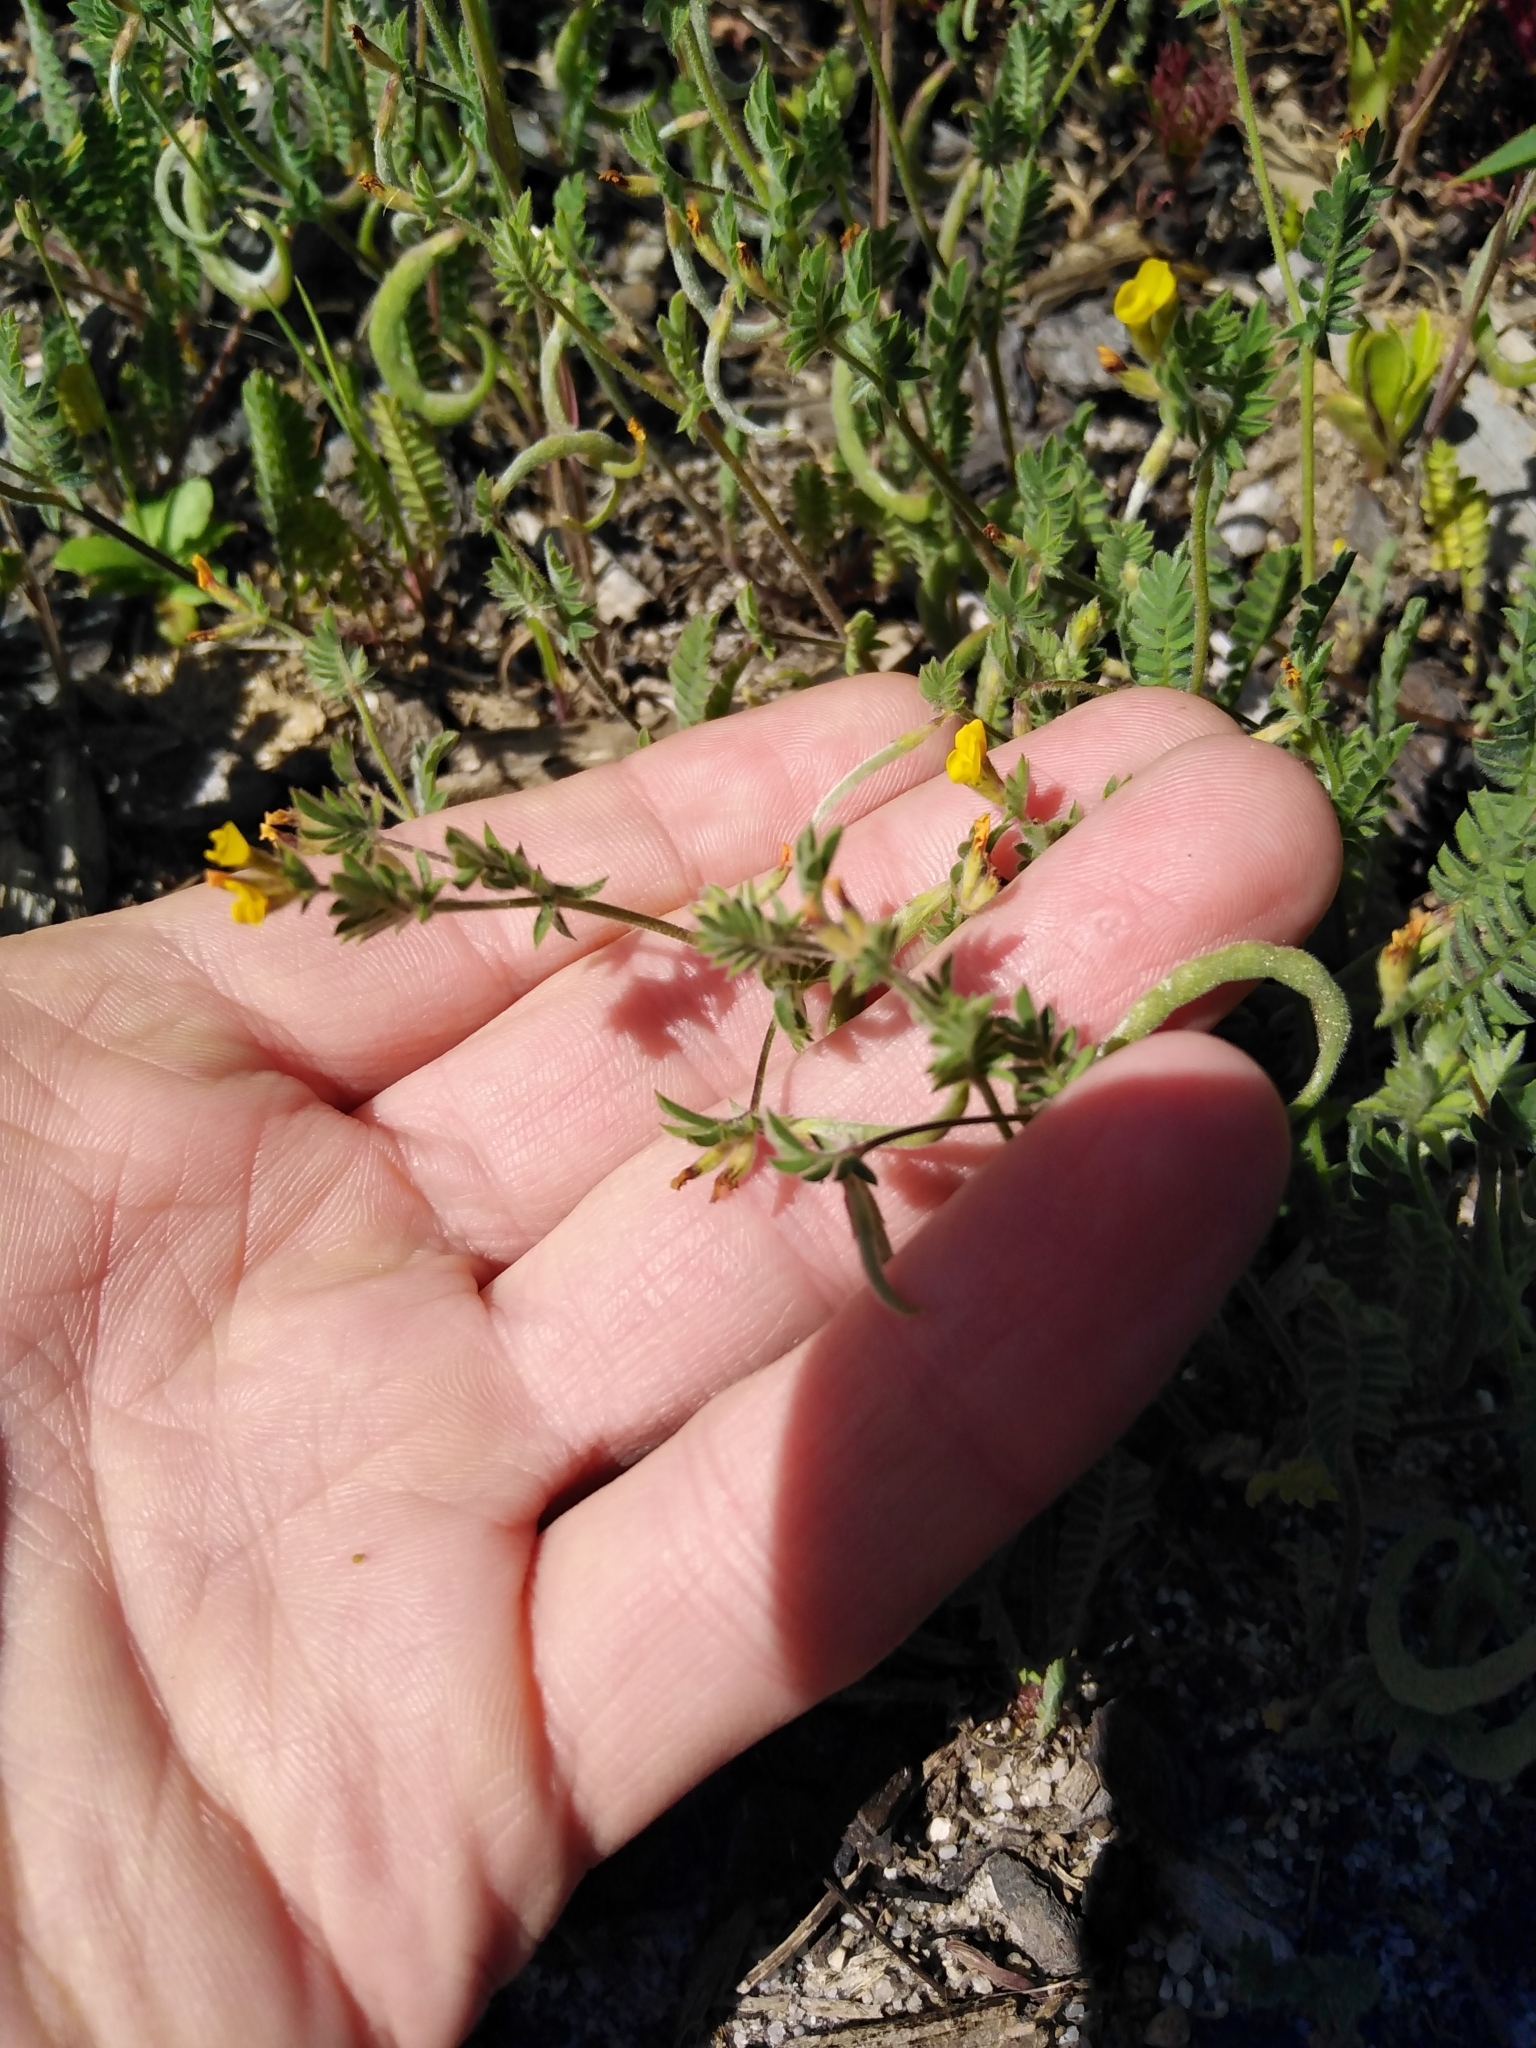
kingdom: Plantae
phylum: Tracheophyta
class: Magnoliopsida
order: Fabales
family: Fabaceae
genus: Ornithopus
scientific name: Ornithopus compressus
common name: Yellow serradella
